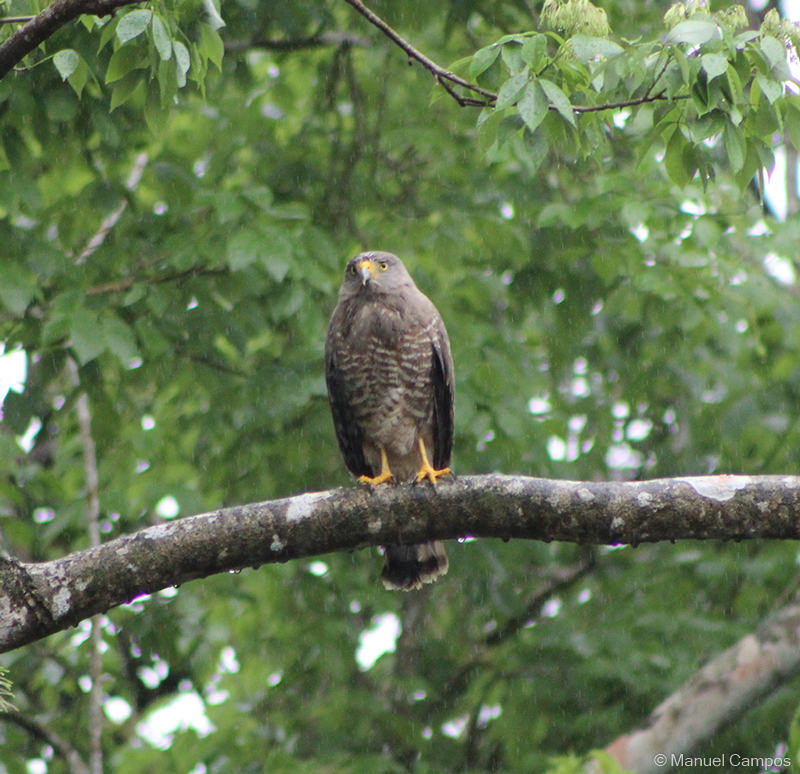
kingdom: Animalia
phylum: Chordata
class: Aves
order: Accipitriformes
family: Accipitridae
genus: Rupornis
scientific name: Rupornis magnirostris
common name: Roadside hawk
